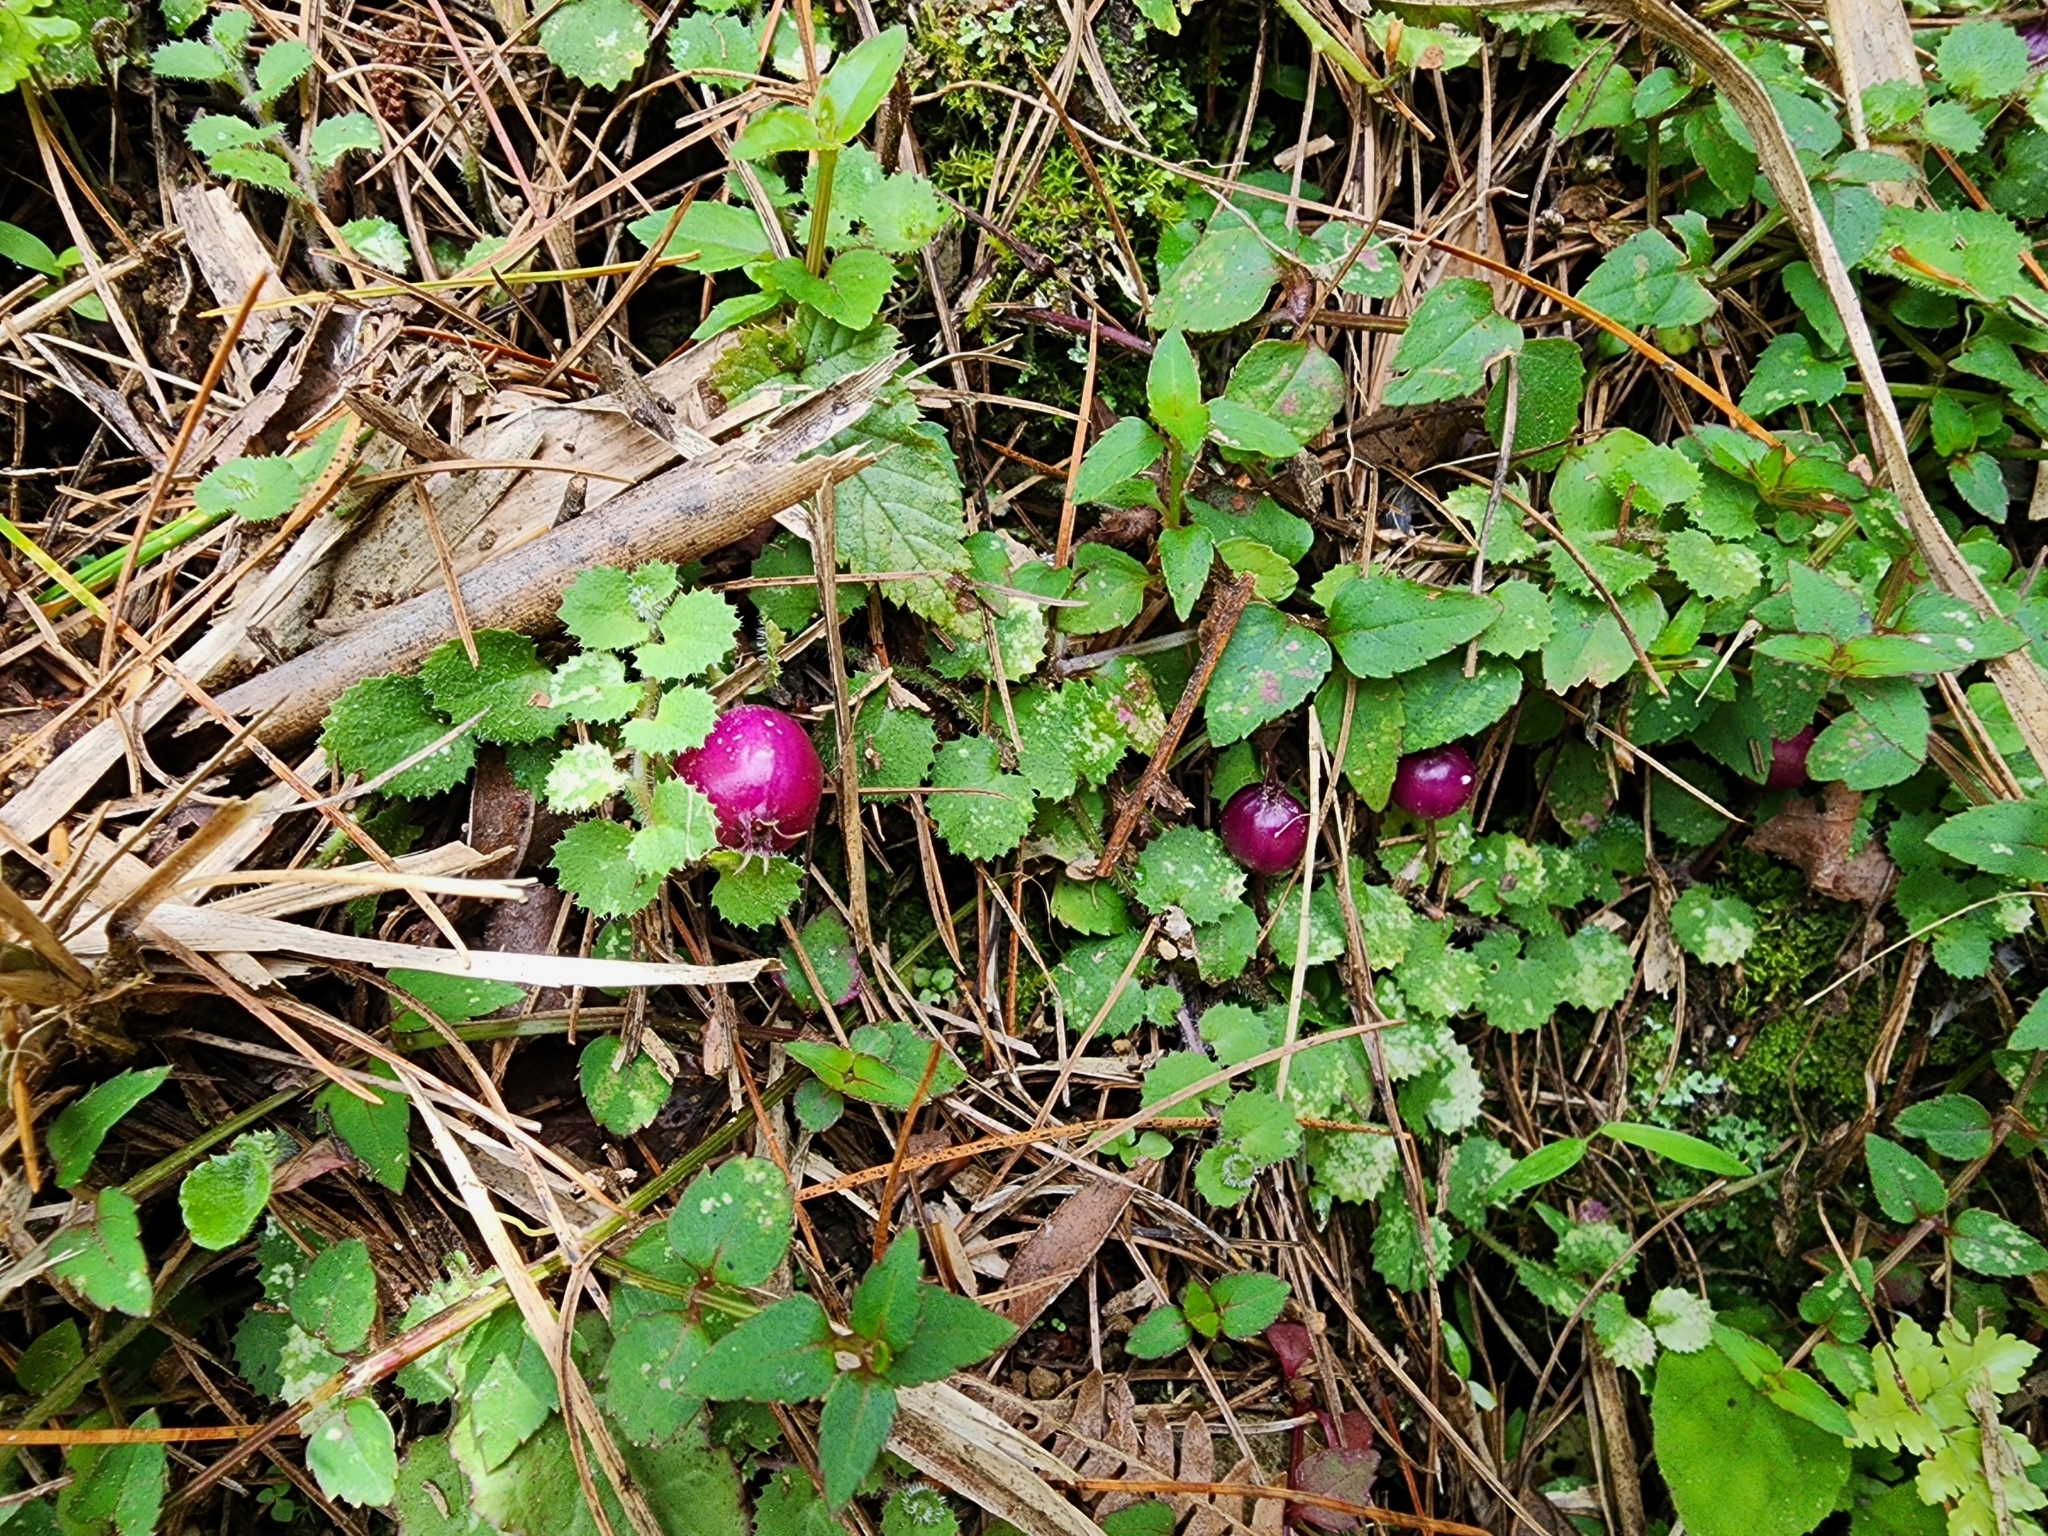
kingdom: Plantae
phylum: Tracheophyta
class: Magnoliopsida
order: Asterales
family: Campanulaceae
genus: Lobelia
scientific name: Lobelia nummularia
